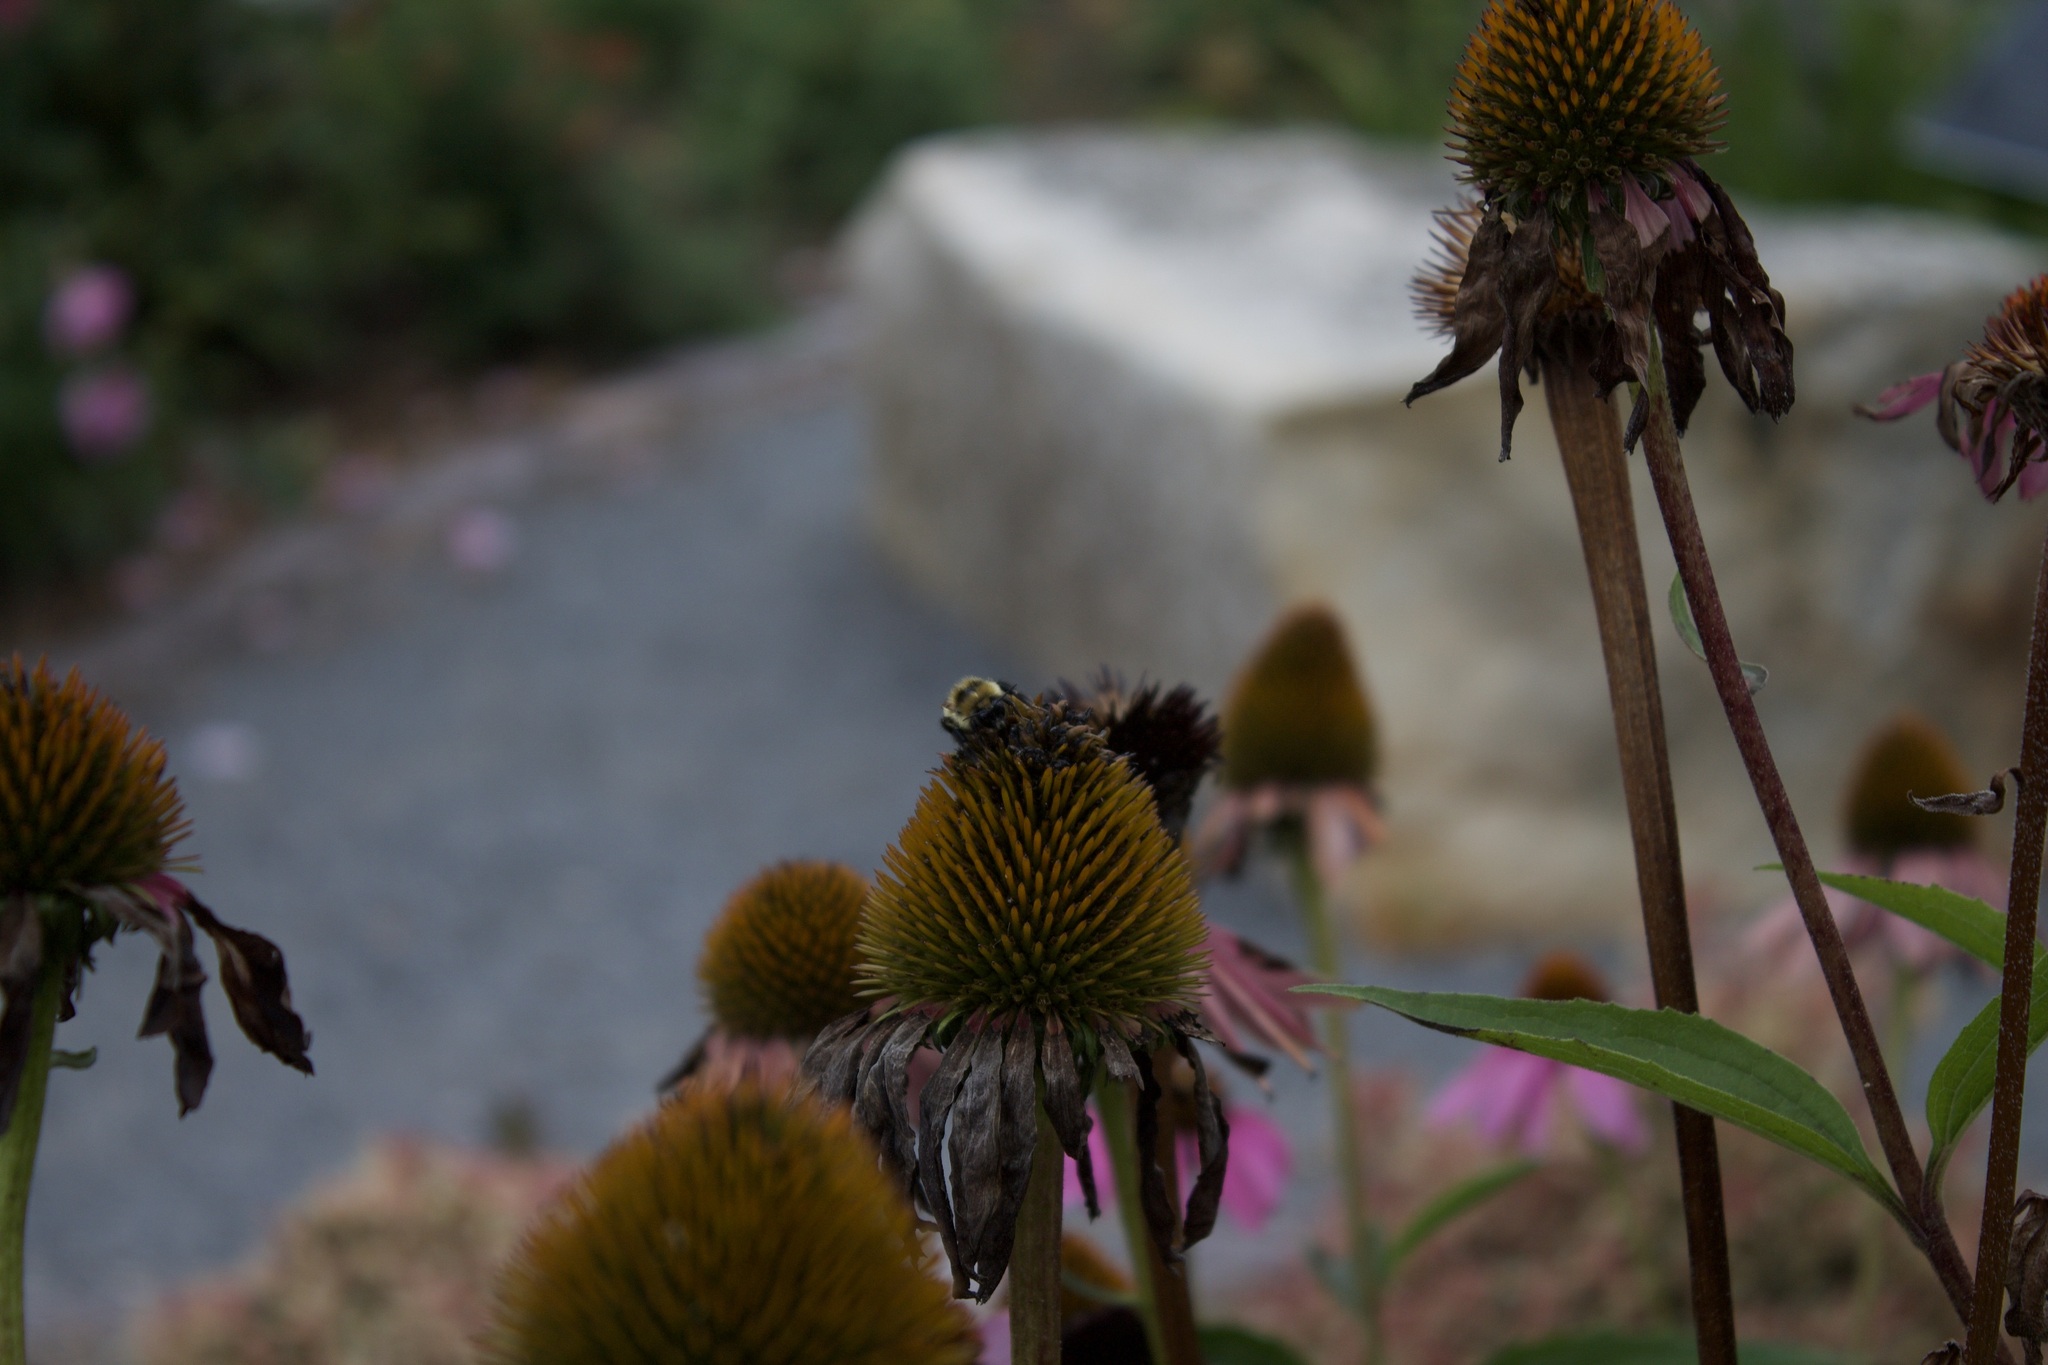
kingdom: Animalia
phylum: Arthropoda
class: Insecta
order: Hymenoptera
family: Apidae
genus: Bombus
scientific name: Bombus rufocinctus
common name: Red-belted bumble bee
